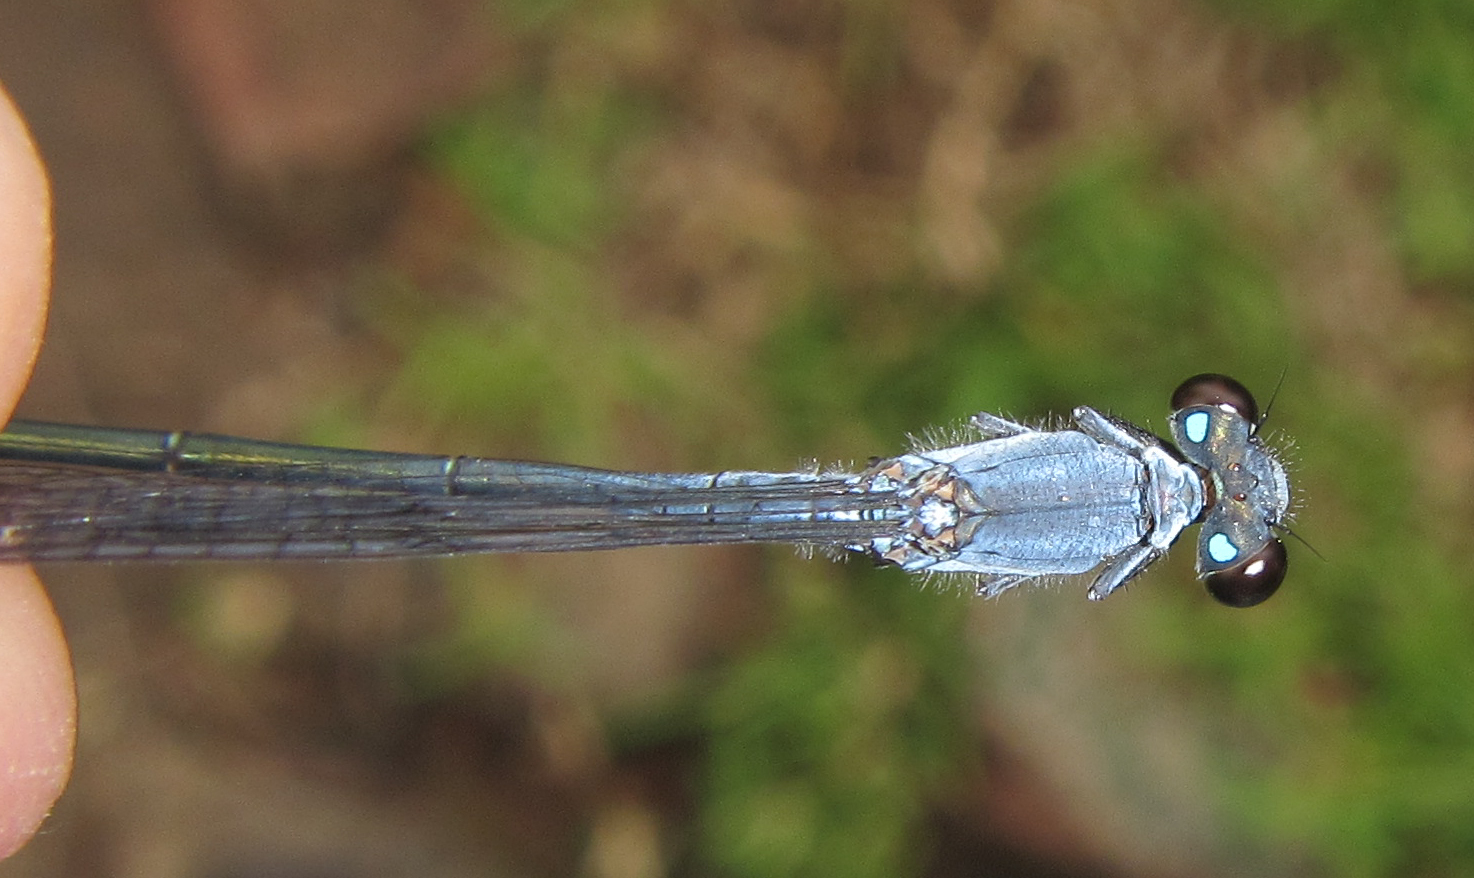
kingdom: Animalia
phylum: Arthropoda
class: Insecta
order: Odonata
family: Coenagrionidae
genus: Pseudagrion
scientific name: Pseudagrion salisburyense
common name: Slate sprite
